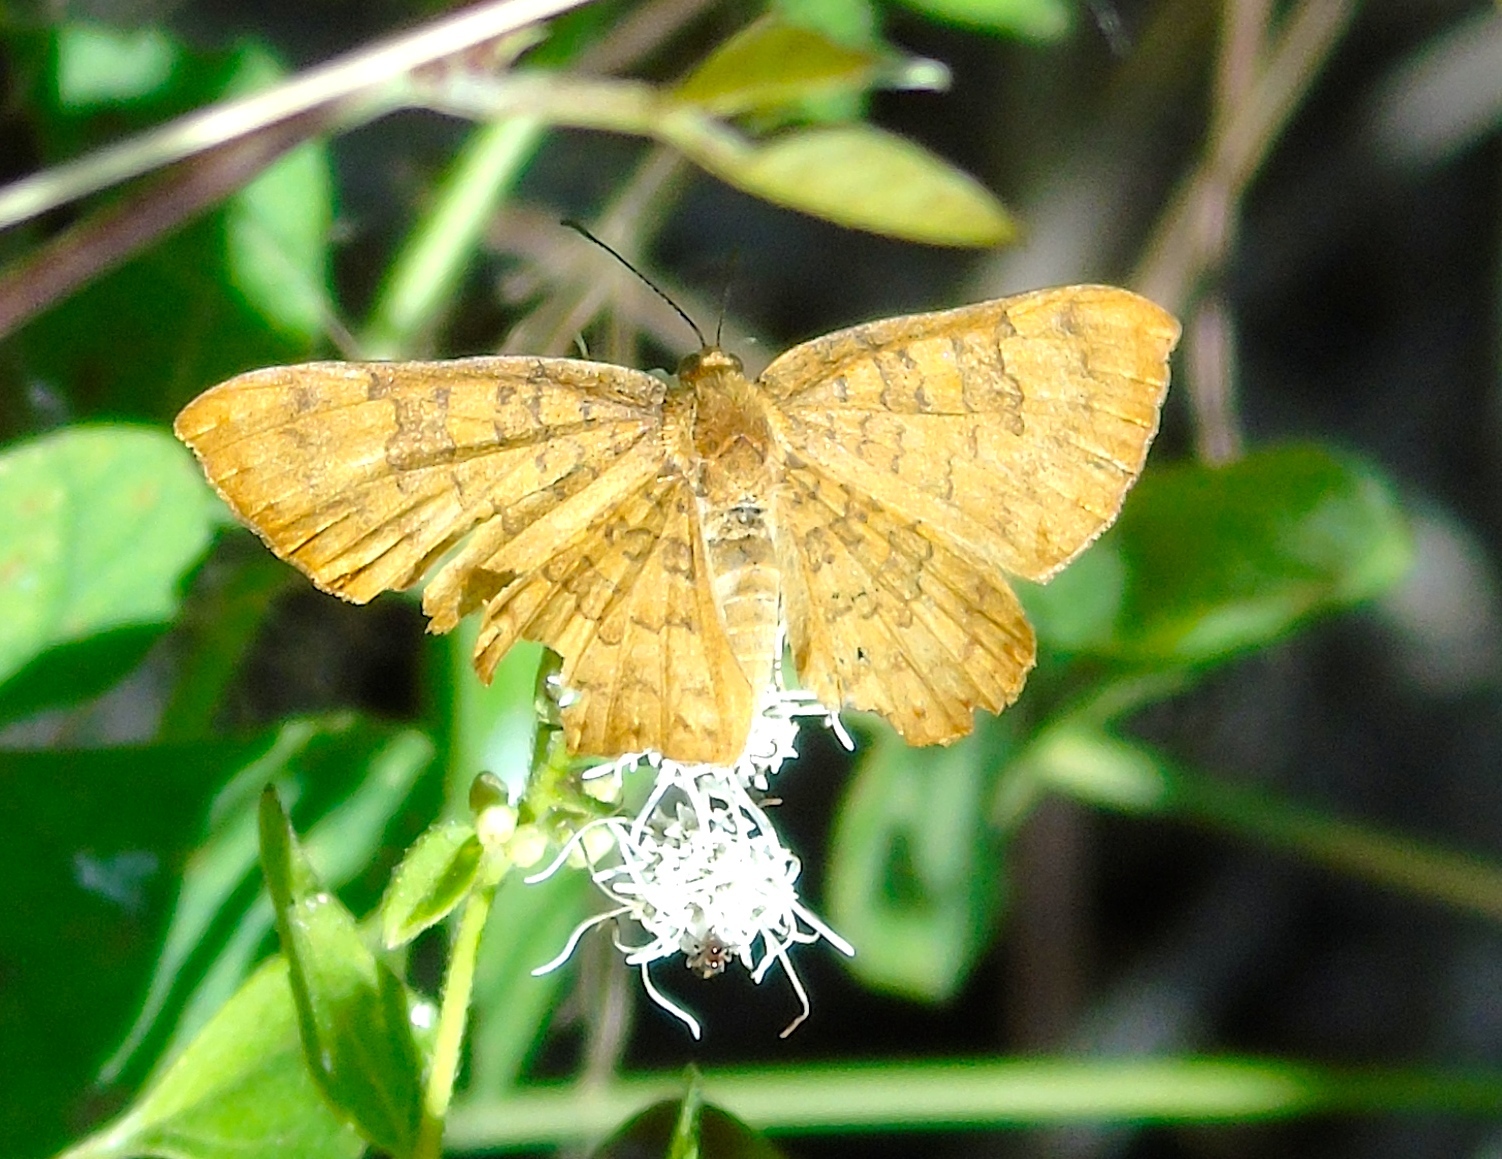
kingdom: Animalia
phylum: Arthropoda
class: Insecta
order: Lepidoptera
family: Lycaenidae
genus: Emesis
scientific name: Emesis vulpina
